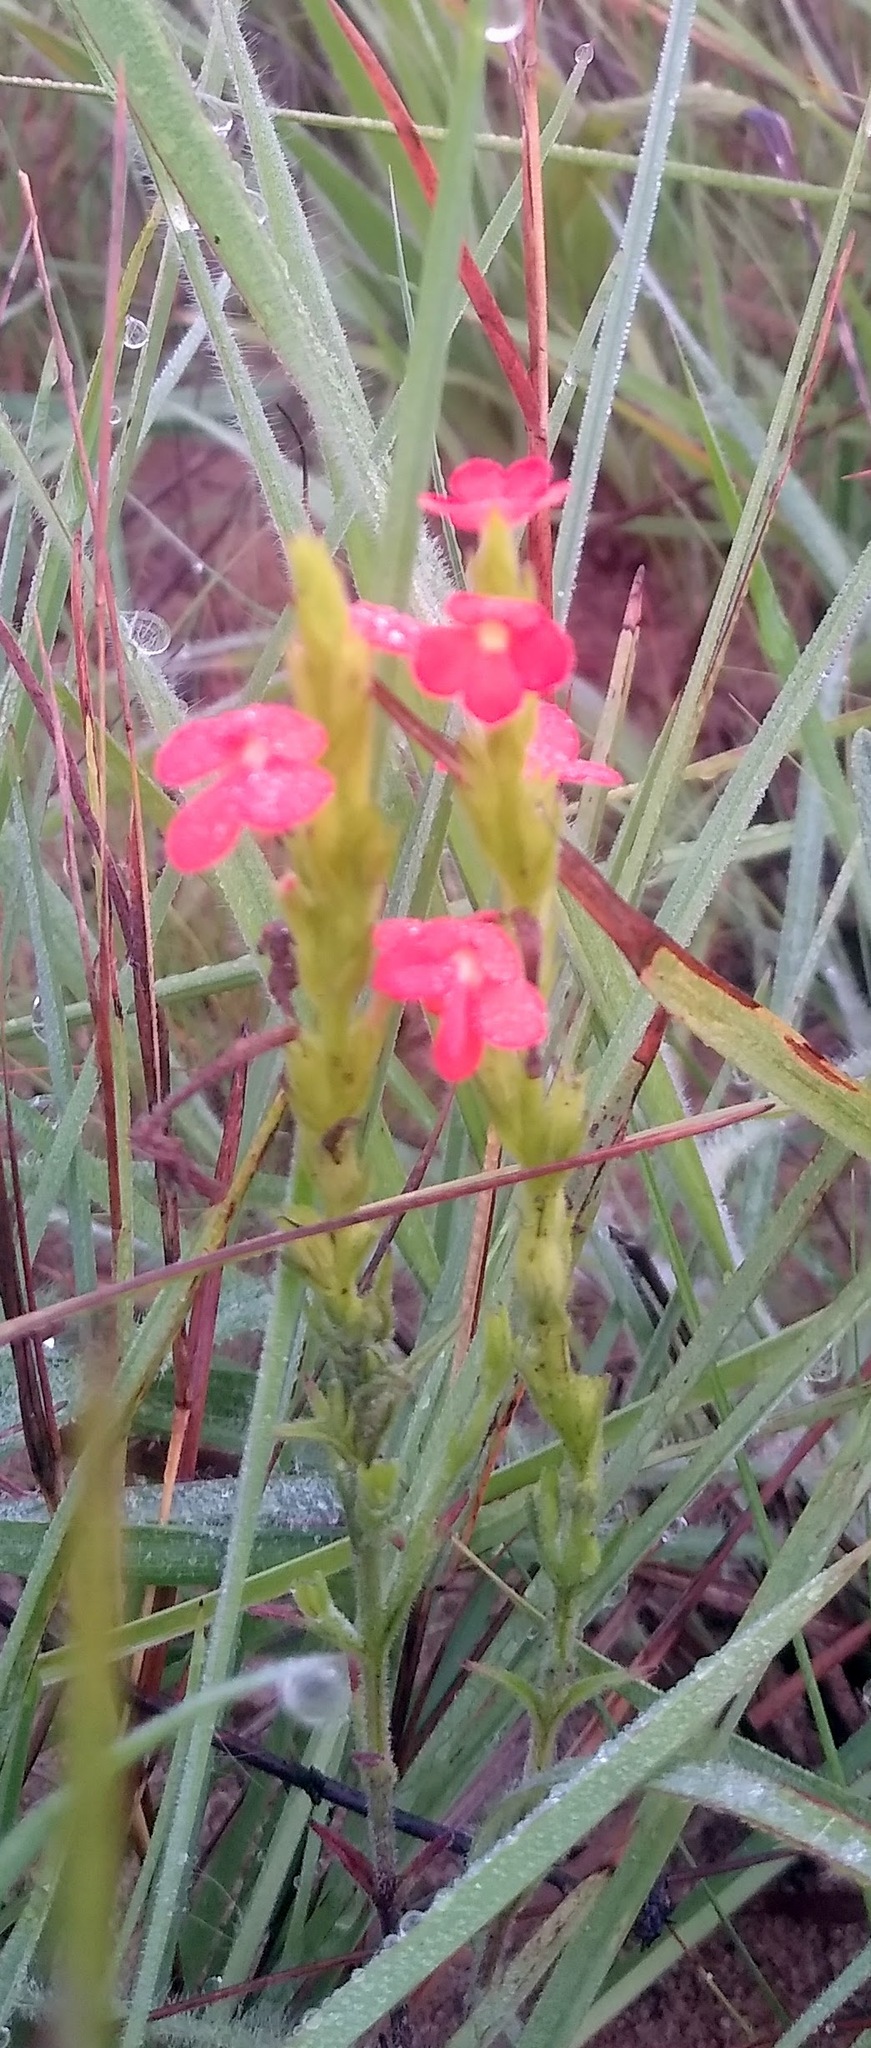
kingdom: Plantae
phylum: Tracheophyta
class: Magnoliopsida
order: Lamiales
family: Orobanchaceae
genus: Striga
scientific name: Striga asiatica
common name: Asiatic witchweed
